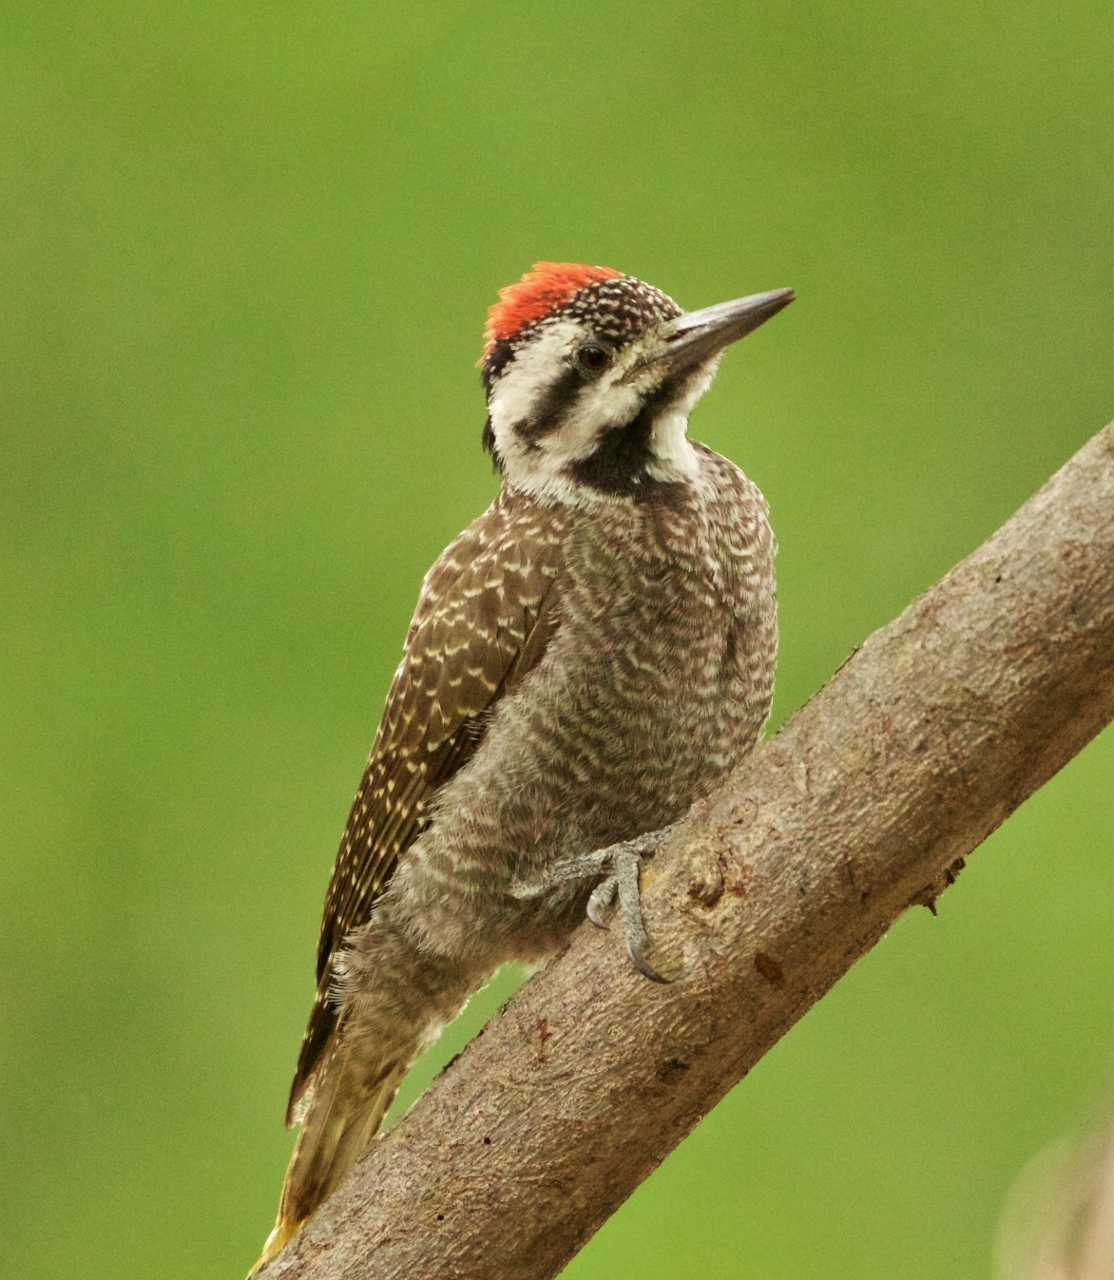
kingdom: Animalia
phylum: Chordata
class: Aves
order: Piciformes
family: Picidae
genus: Chloropicus
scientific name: Chloropicus namaquus
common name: Bearded woodpecker
